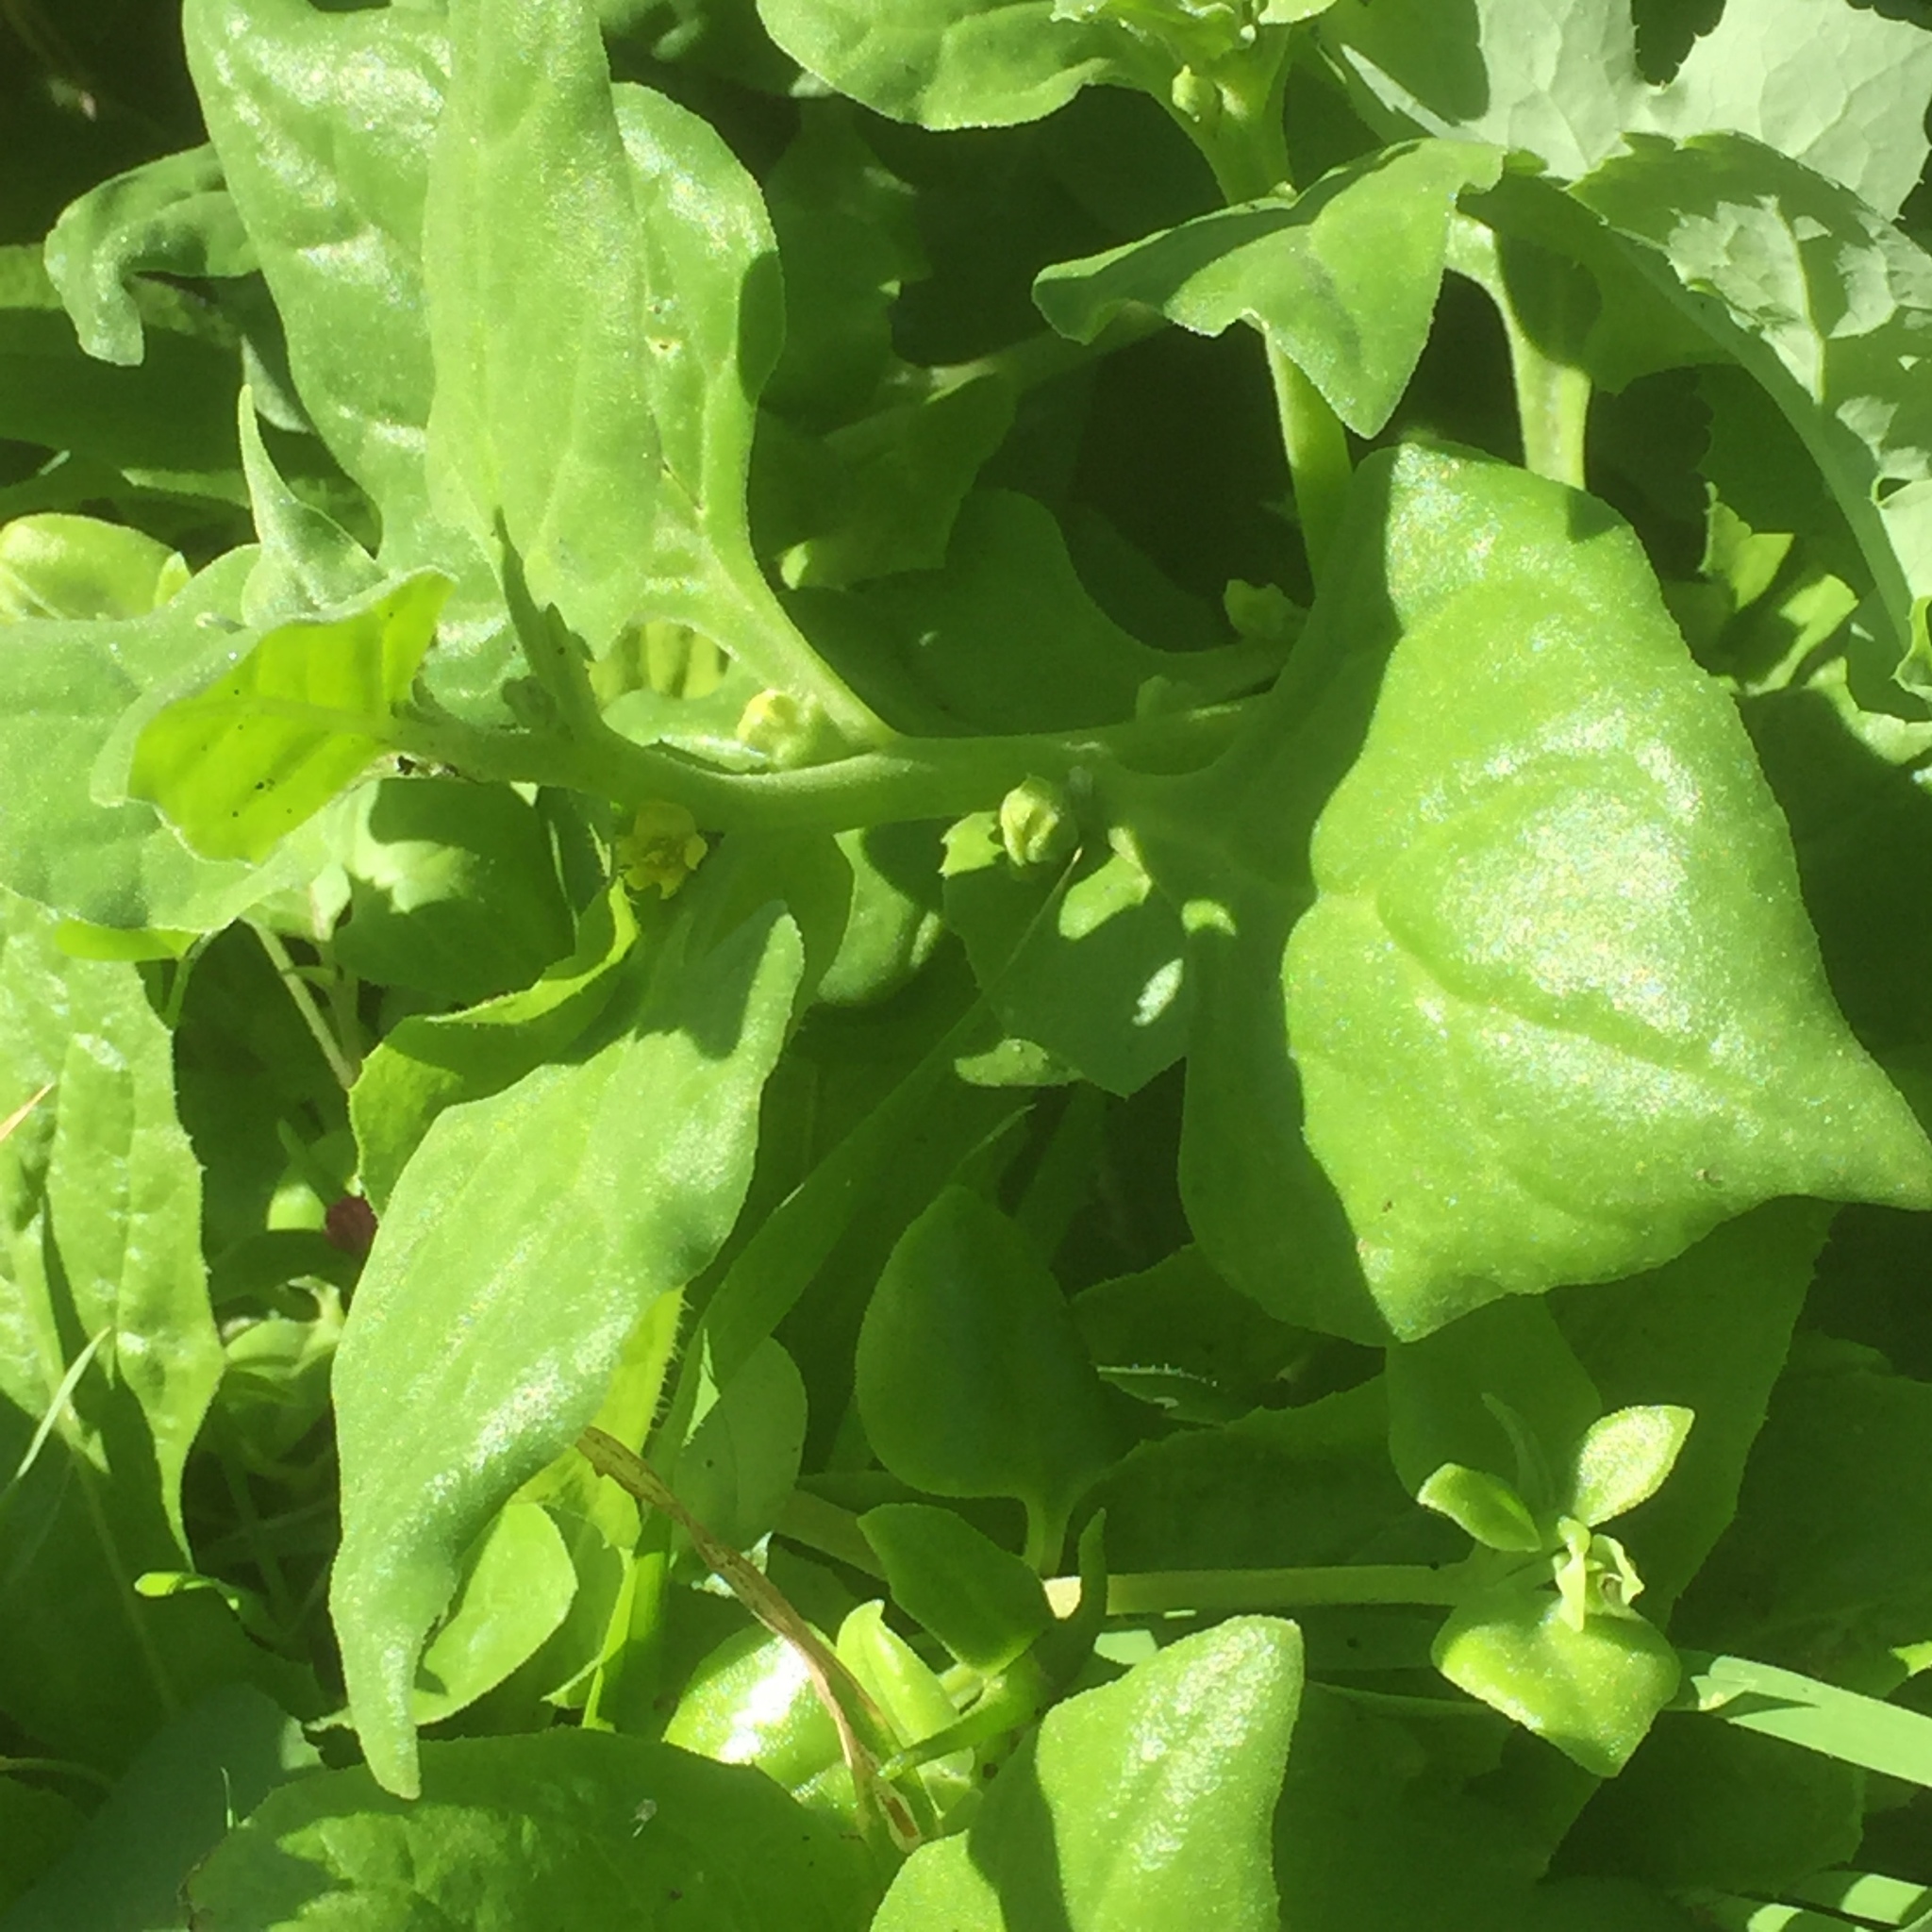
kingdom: Plantae
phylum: Tracheophyta
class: Magnoliopsida
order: Caryophyllales
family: Aizoaceae
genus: Tetragonia
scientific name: Tetragonia tetragonoides
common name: New zealand-spinach
